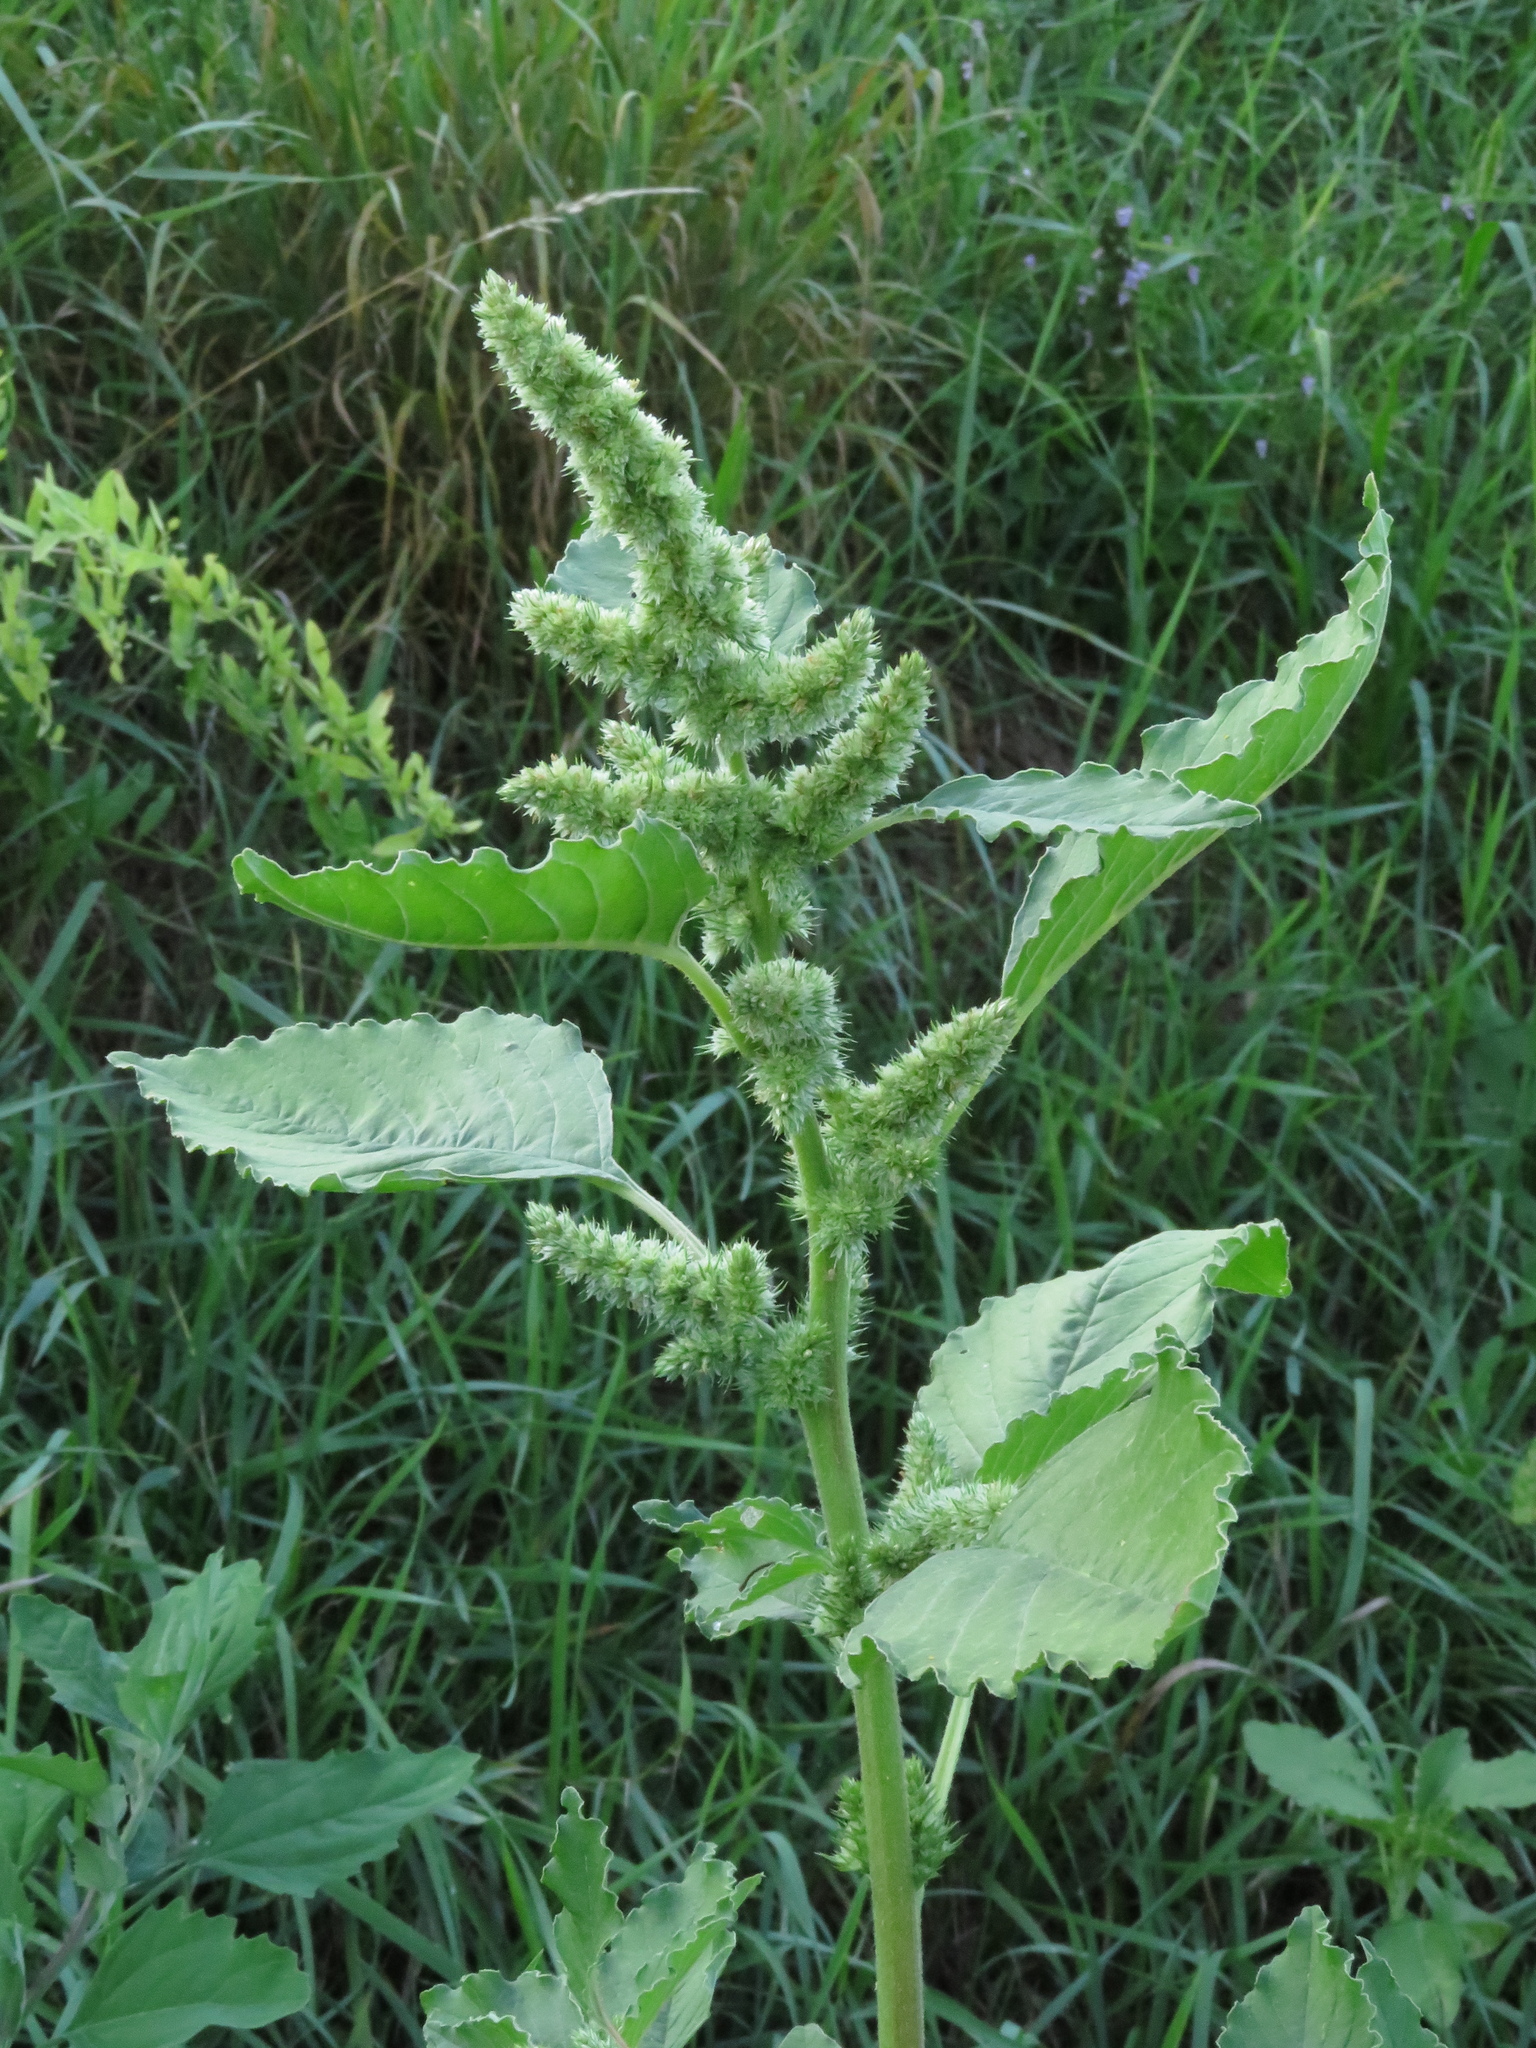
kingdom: Plantae
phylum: Tracheophyta
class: Magnoliopsida
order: Caryophyllales
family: Amaranthaceae
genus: Amaranthus
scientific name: Amaranthus retroflexus
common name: Redroot amaranth
